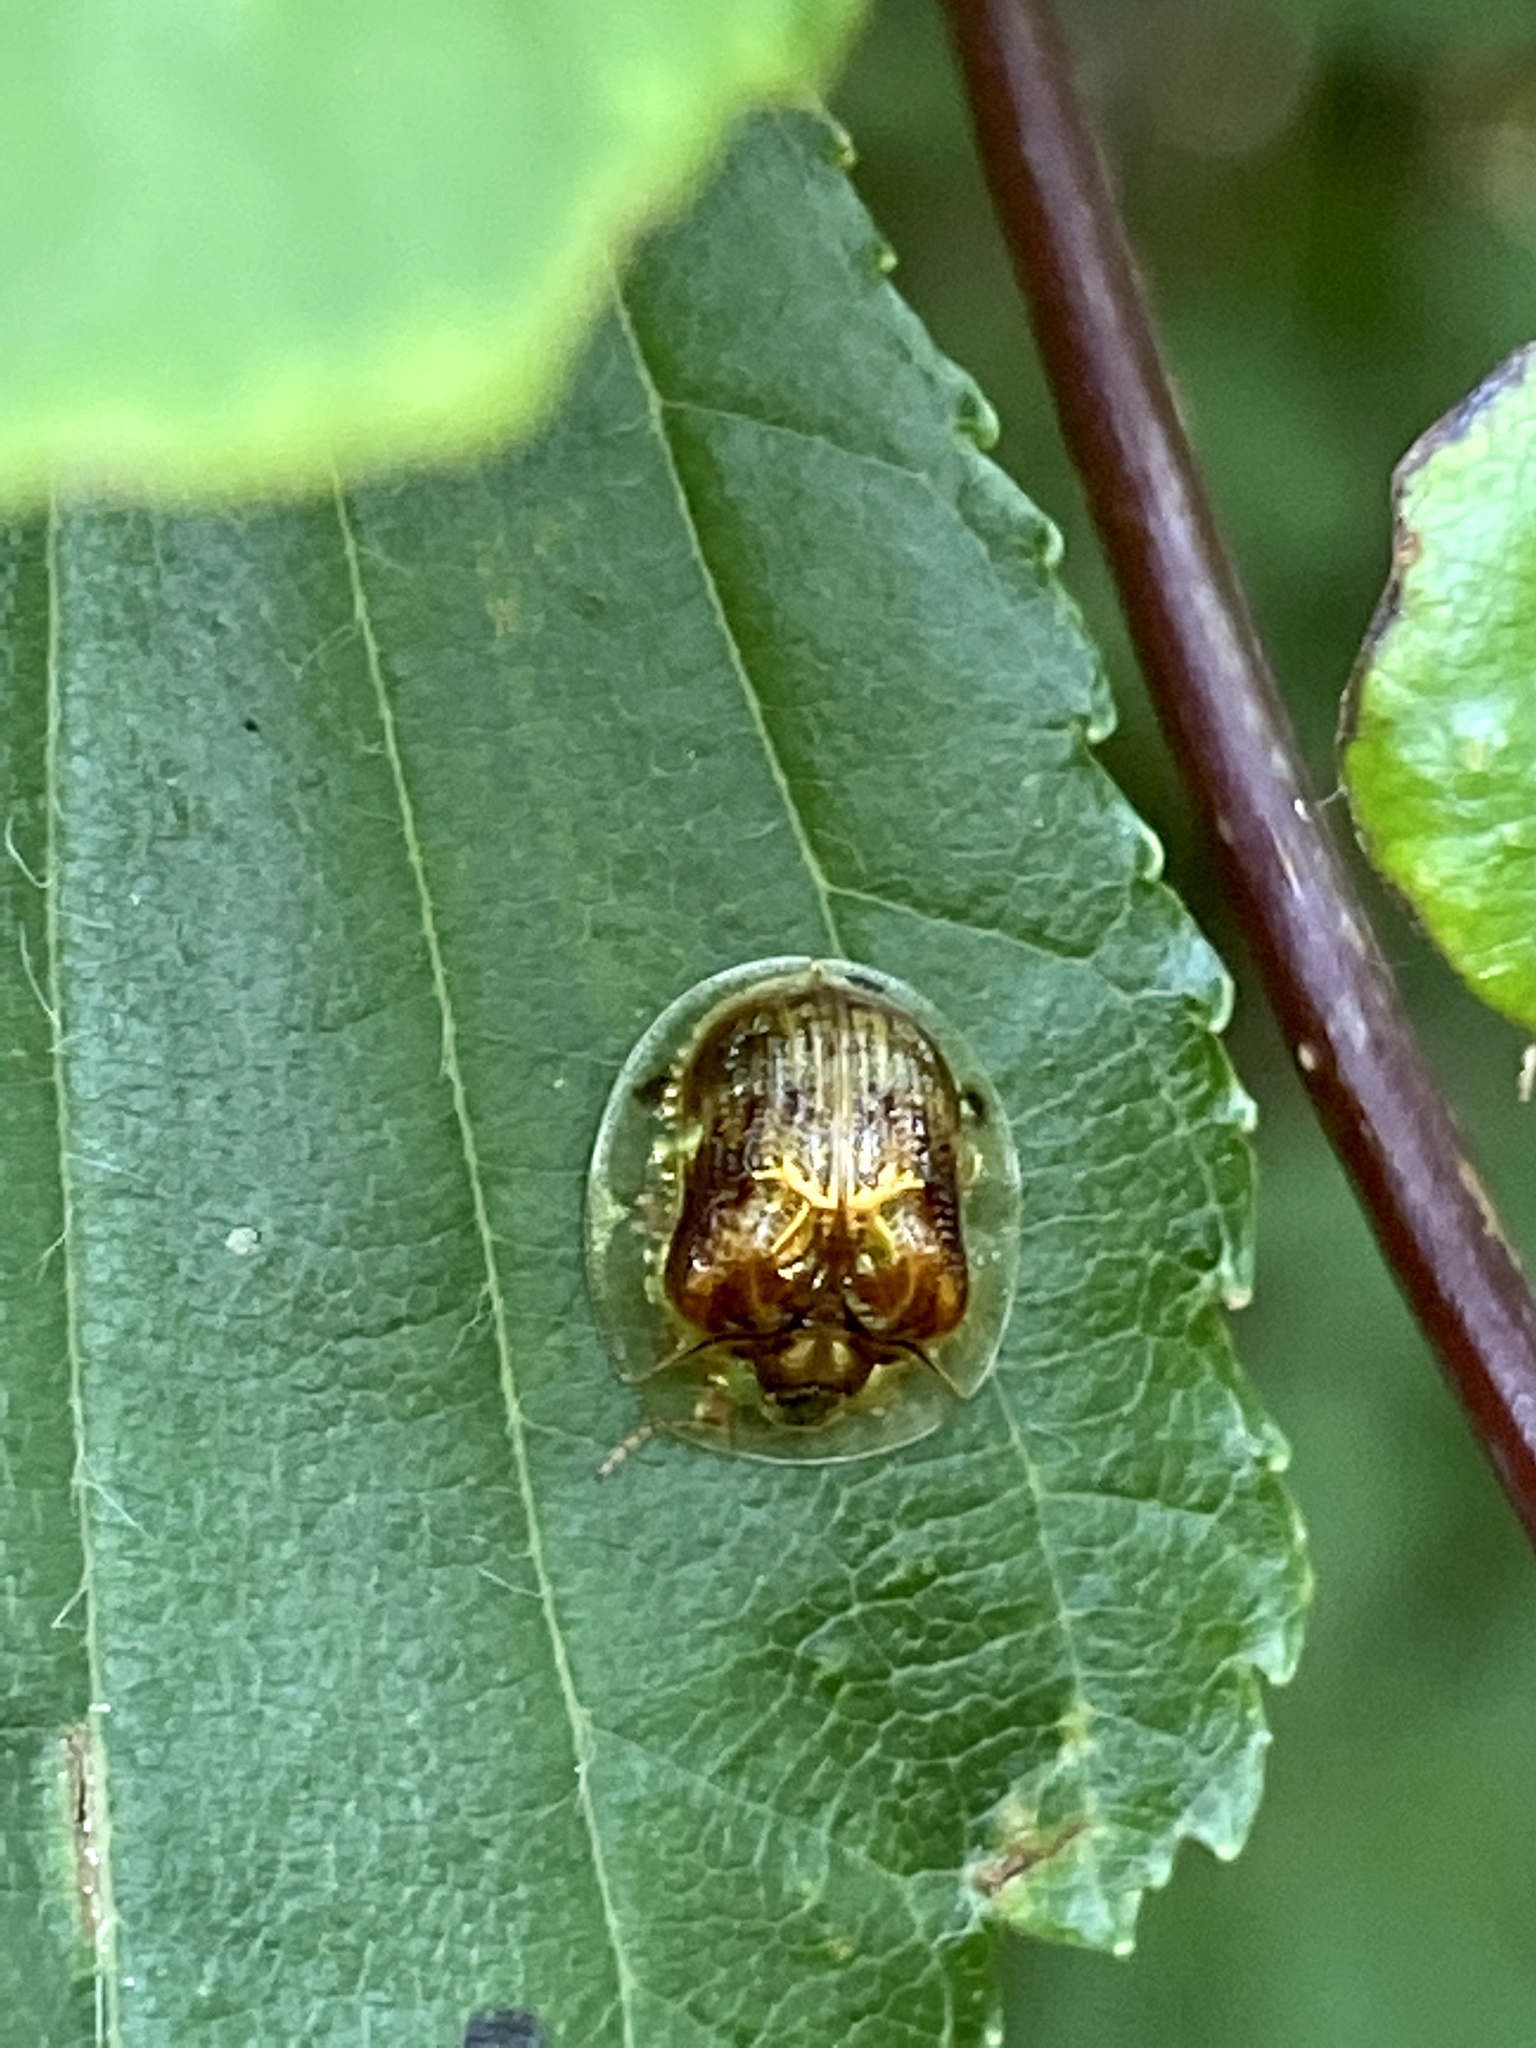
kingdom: Animalia
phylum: Arthropoda
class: Insecta
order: Coleoptera
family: Chrysomelidae
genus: Cassida
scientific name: Cassida versicolor
